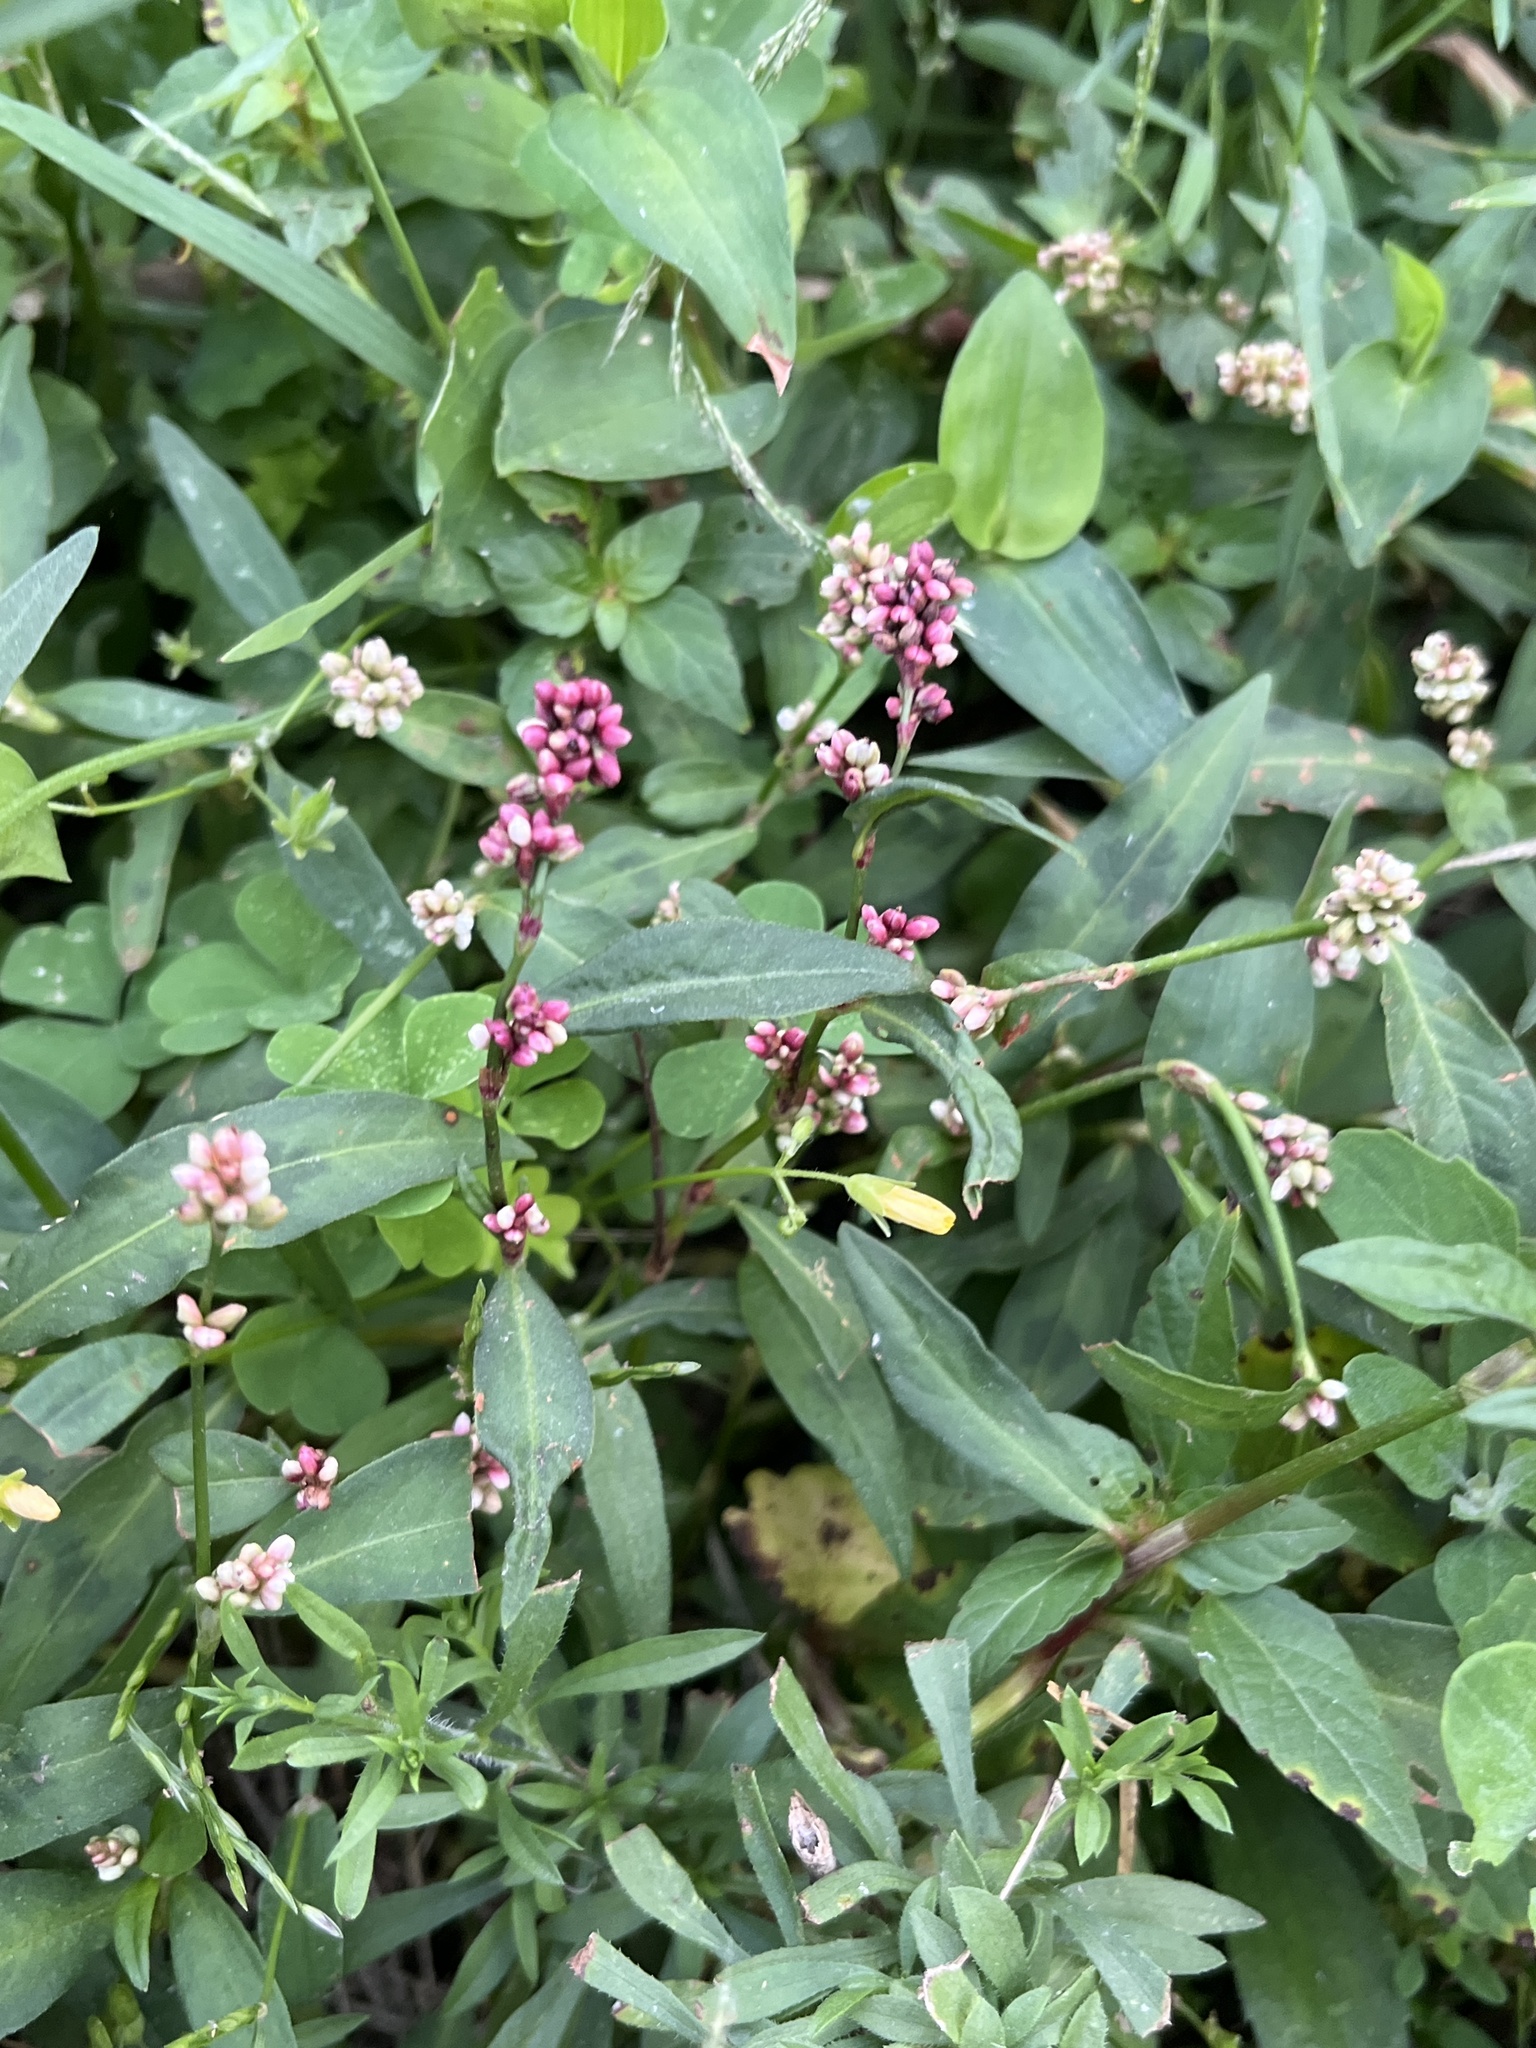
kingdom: Plantae
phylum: Tracheophyta
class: Magnoliopsida
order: Caryophyllales
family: Polygonaceae
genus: Persicaria
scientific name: Persicaria maculosa
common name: Redshank
